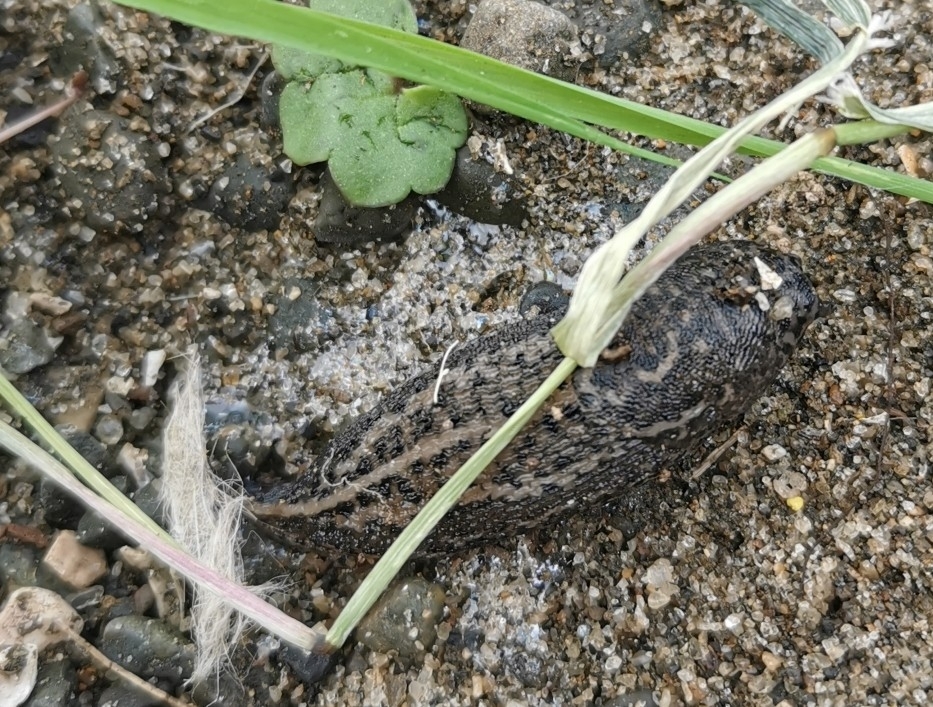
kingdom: Animalia
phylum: Mollusca
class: Gastropoda
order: Stylommatophora
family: Limacidae
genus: Limax
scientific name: Limax maximus
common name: Great grey slug
